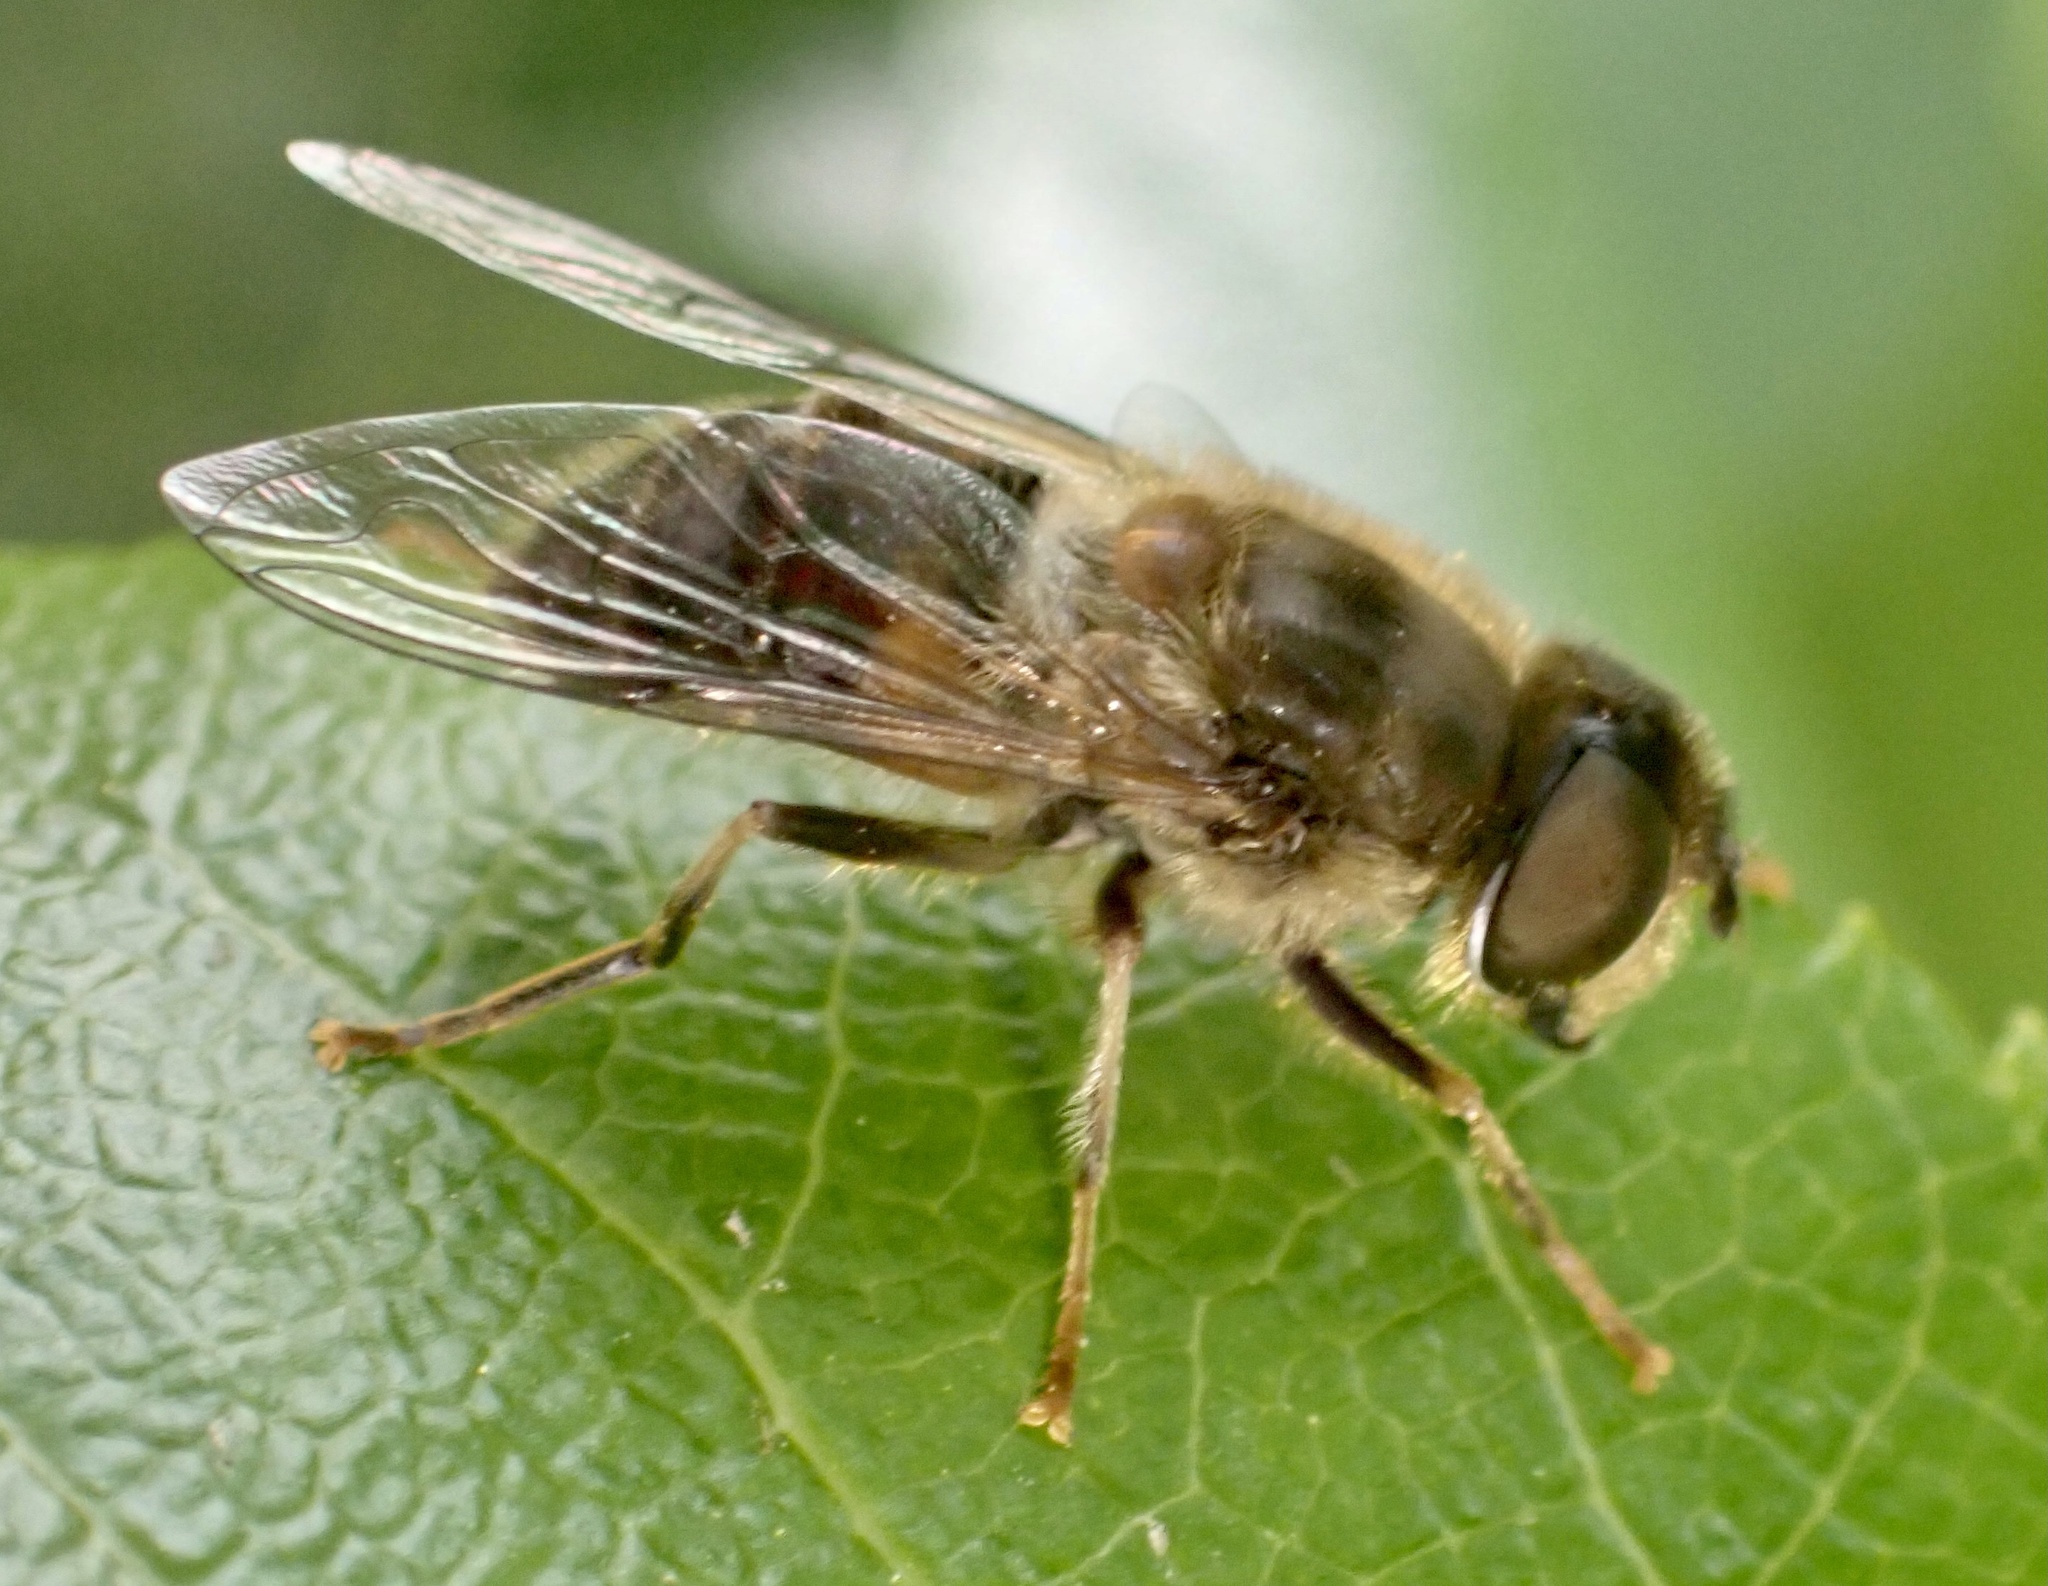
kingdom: Animalia
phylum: Arthropoda
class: Insecta
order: Diptera
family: Syrphidae
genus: Eristalis
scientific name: Eristalis pertinax
